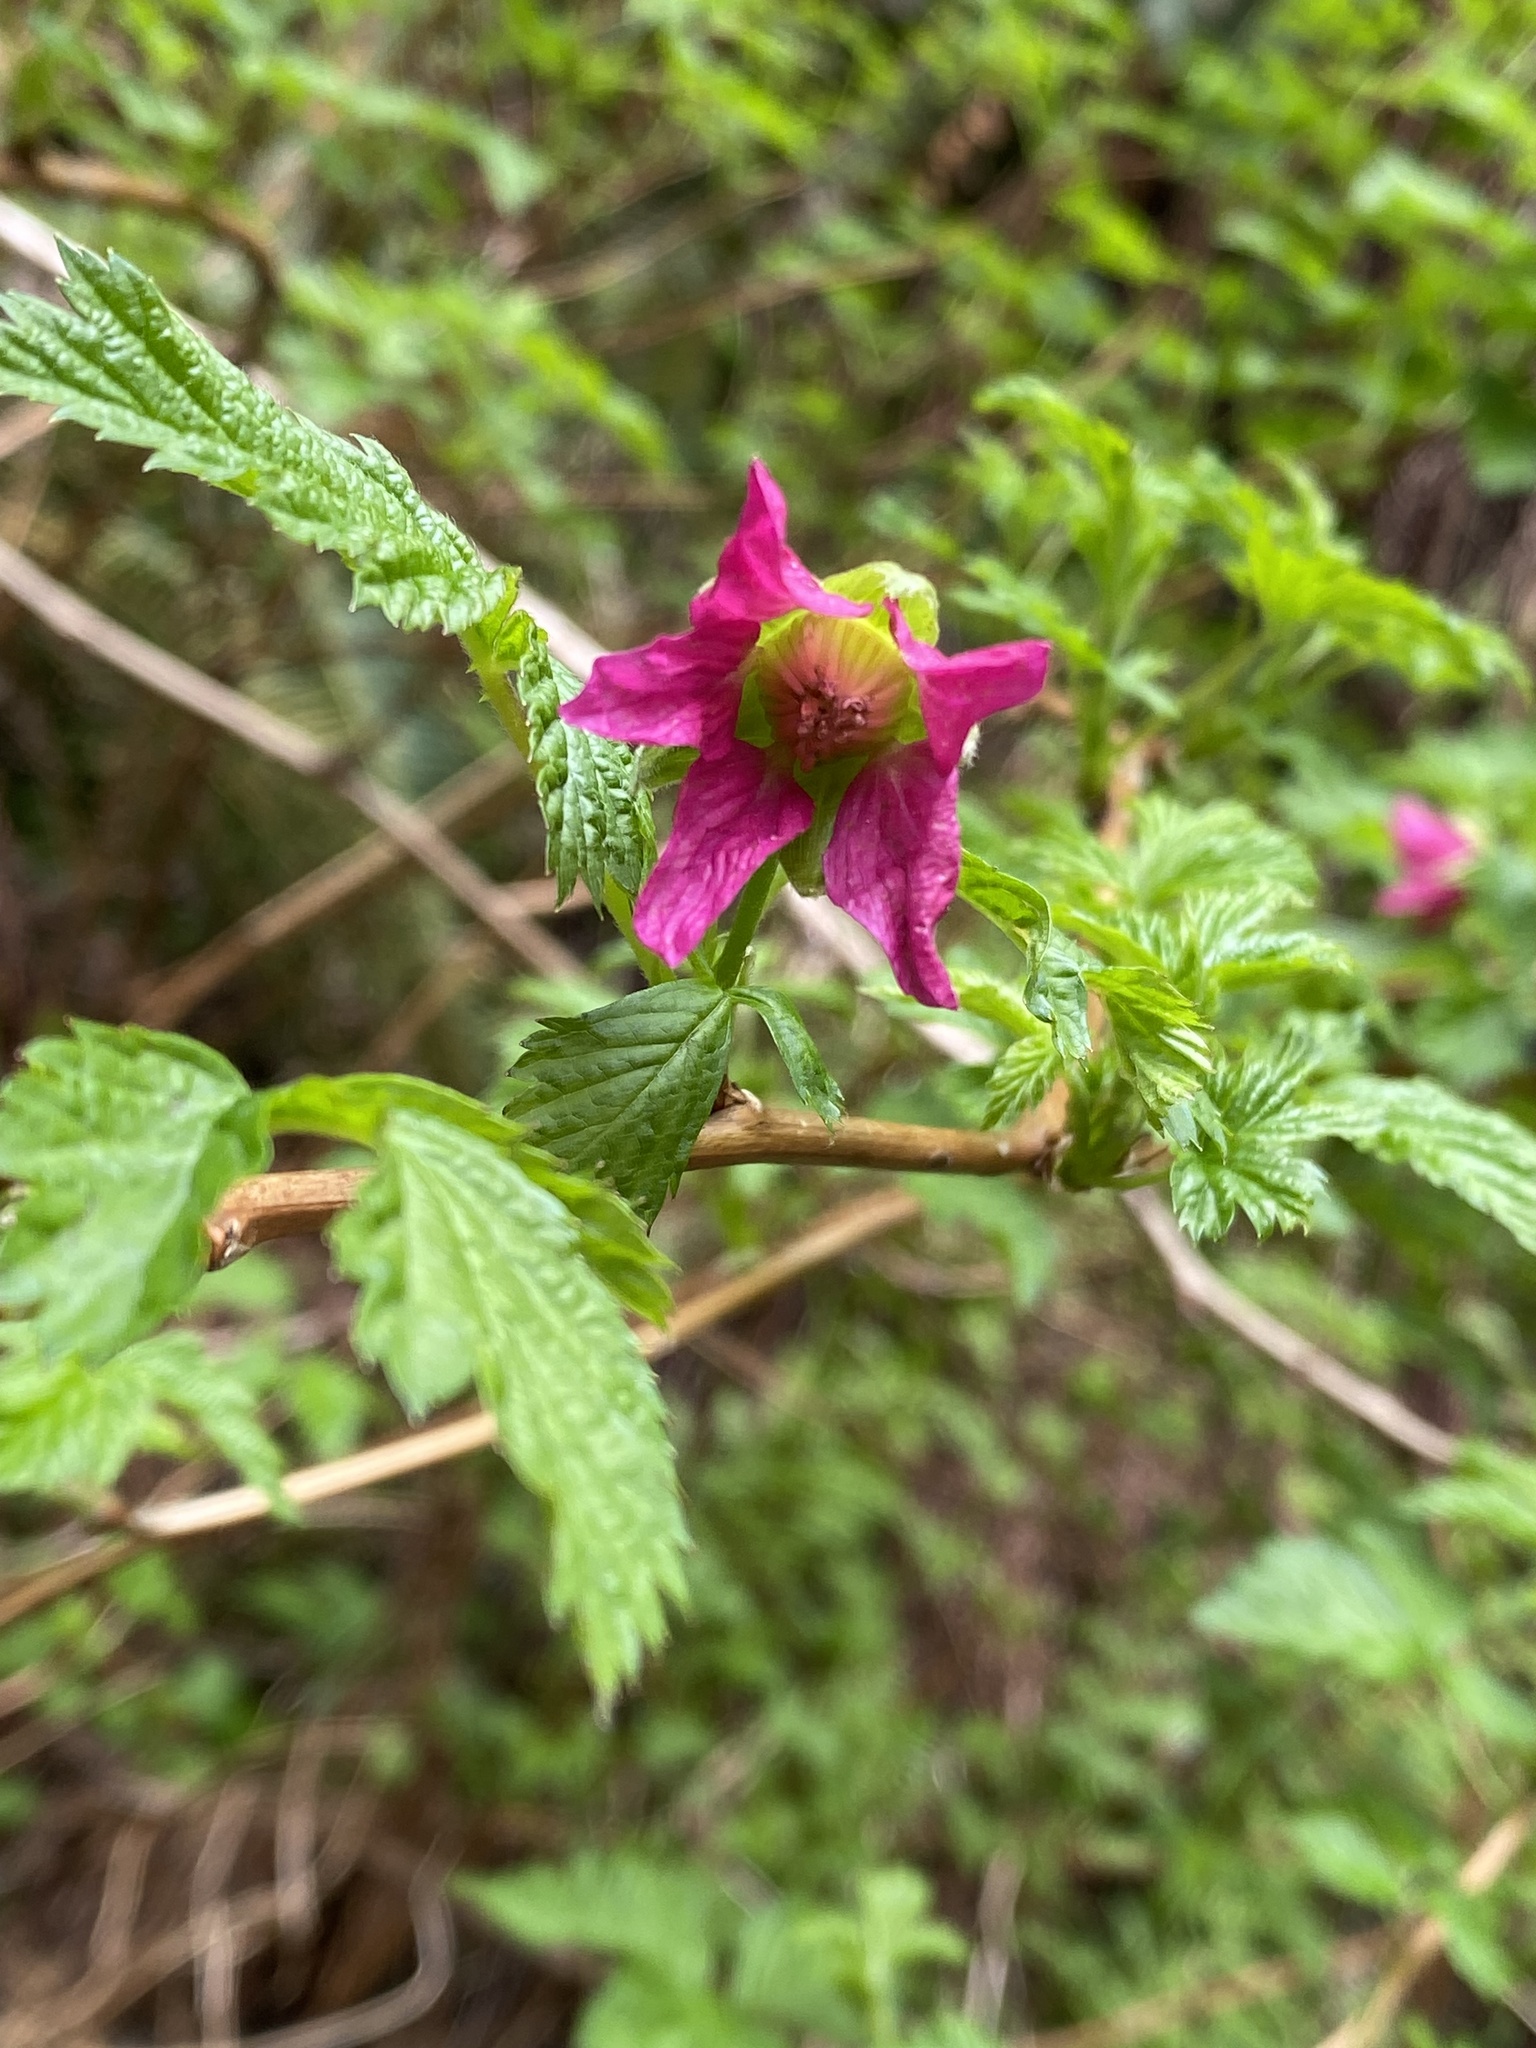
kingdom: Plantae
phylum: Tracheophyta
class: Magnoliopsida
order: Rosales
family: Rosaceae
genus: Rubus
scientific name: Rubus spectabilis
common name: Salmonberry
